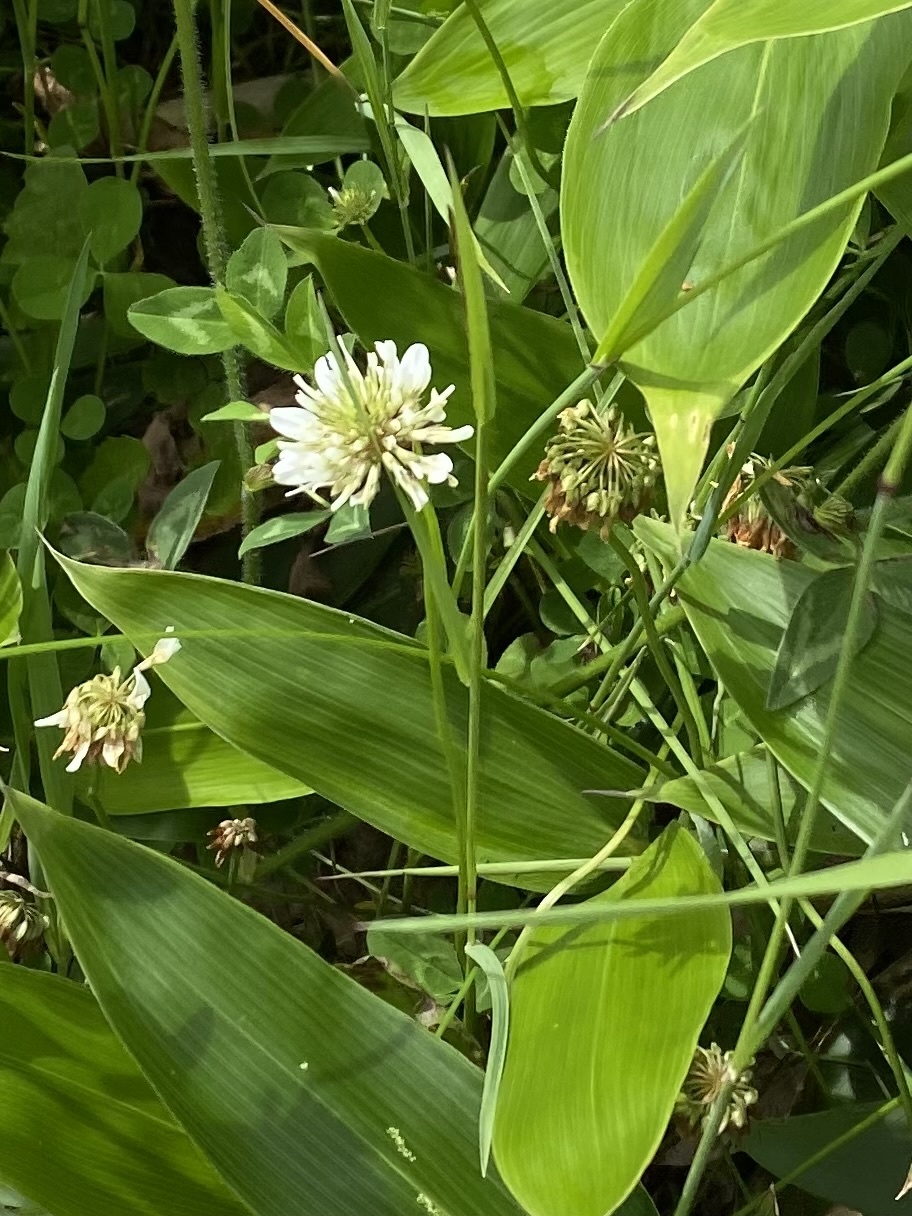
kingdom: Plantae
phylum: Tracheophyta
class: Magnoliopsida
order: Fabales
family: Fabaceae
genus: Trifolium
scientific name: Trifolium repens
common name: White clover
